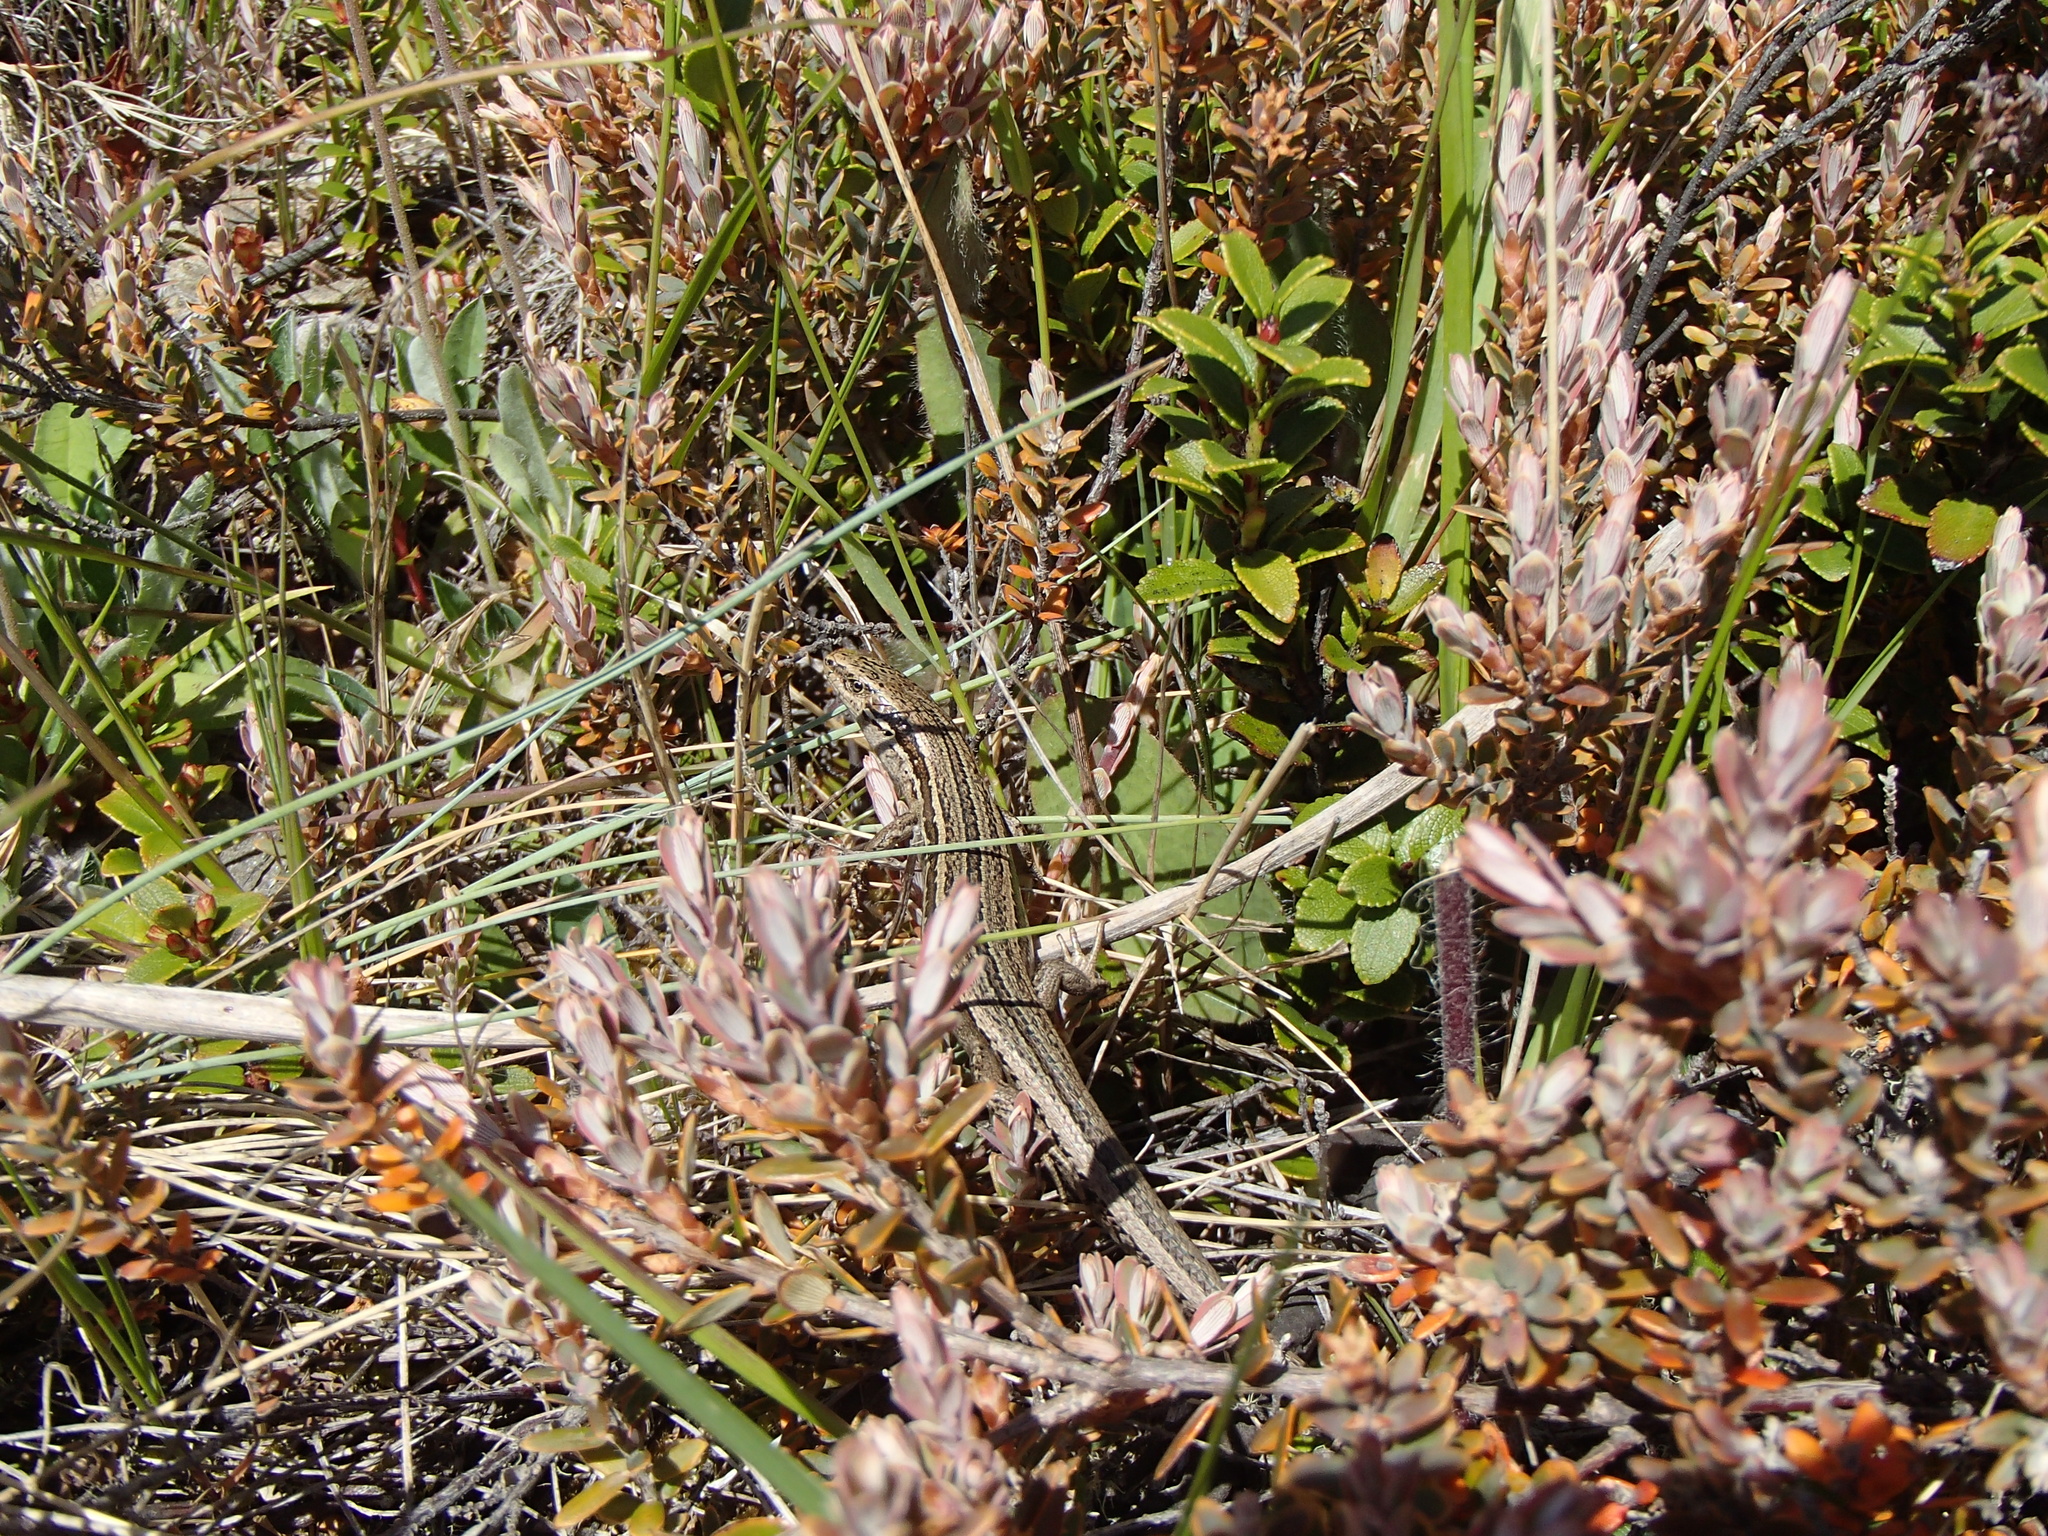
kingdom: Animalia
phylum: Chordata
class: Squamata
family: Scincidae
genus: Oligosoma
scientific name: Oligosoma maccanni
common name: Mccann’s skink
